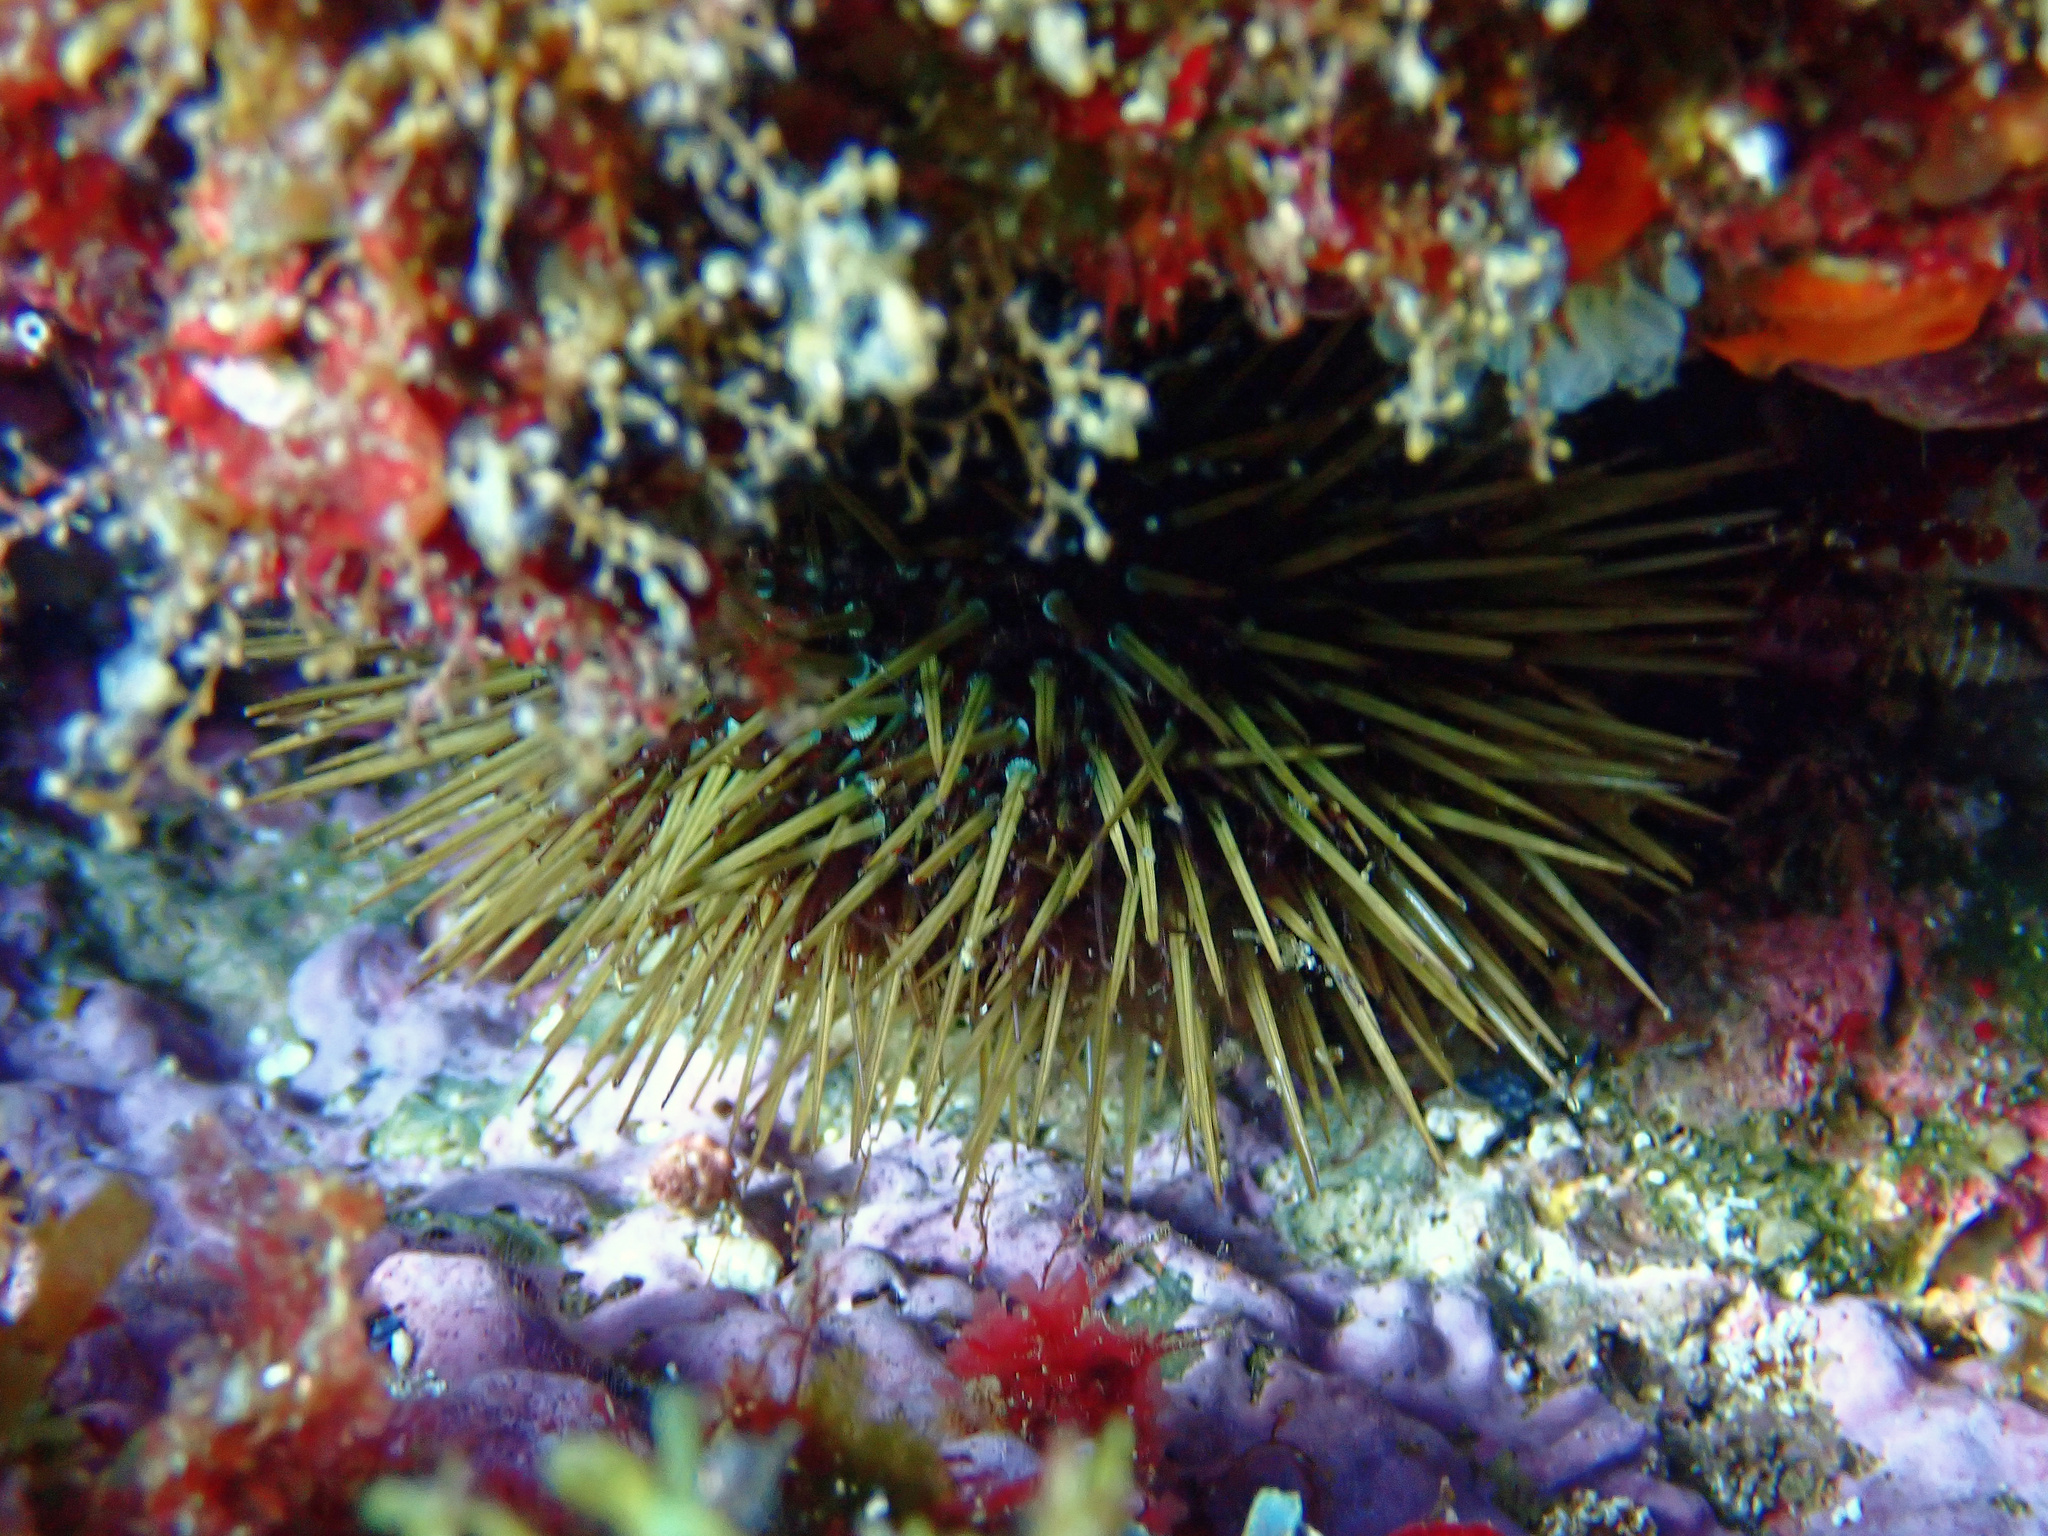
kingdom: Animalia
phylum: Echinodermata
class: Echinoidea
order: Camarodonta
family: Parechinidae
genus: Paracentrotus
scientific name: Paracentrotus lividus
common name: Purple sea urchin
